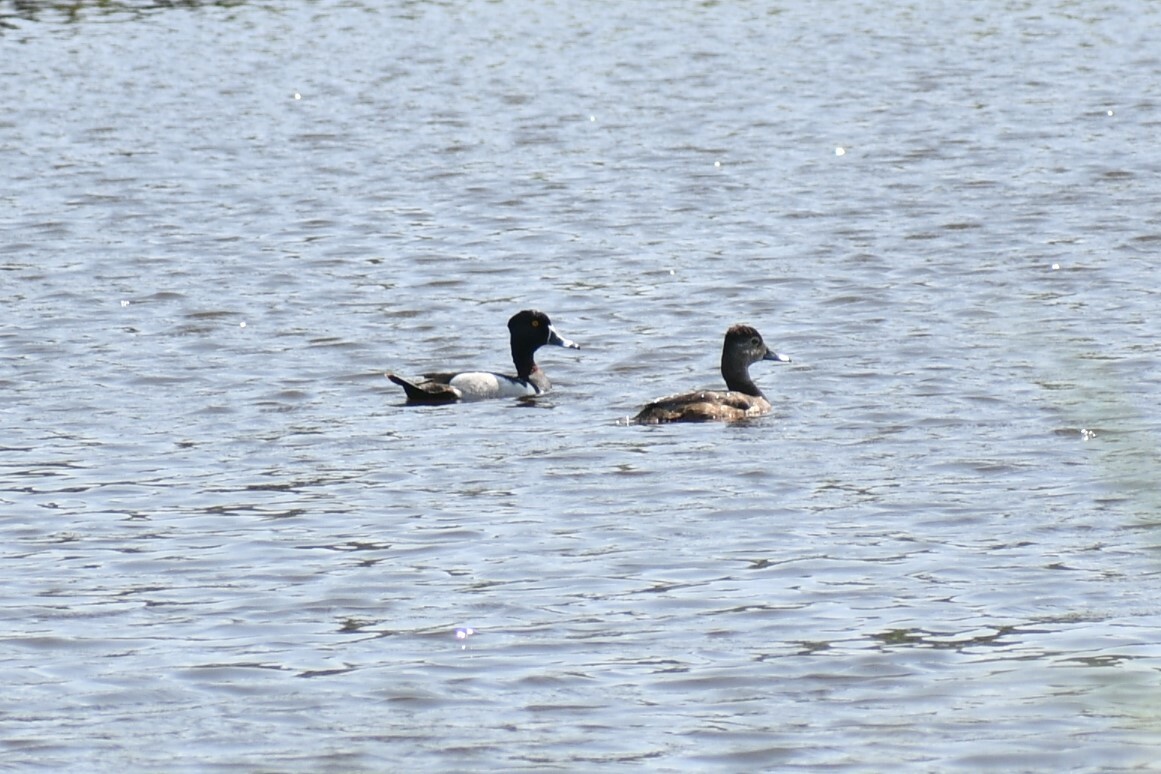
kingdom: Animalia
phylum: Chordata
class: Aves
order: Anseriformes
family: Anatidae
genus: Aythya
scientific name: Aythya collaris
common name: Ring-necked duck
